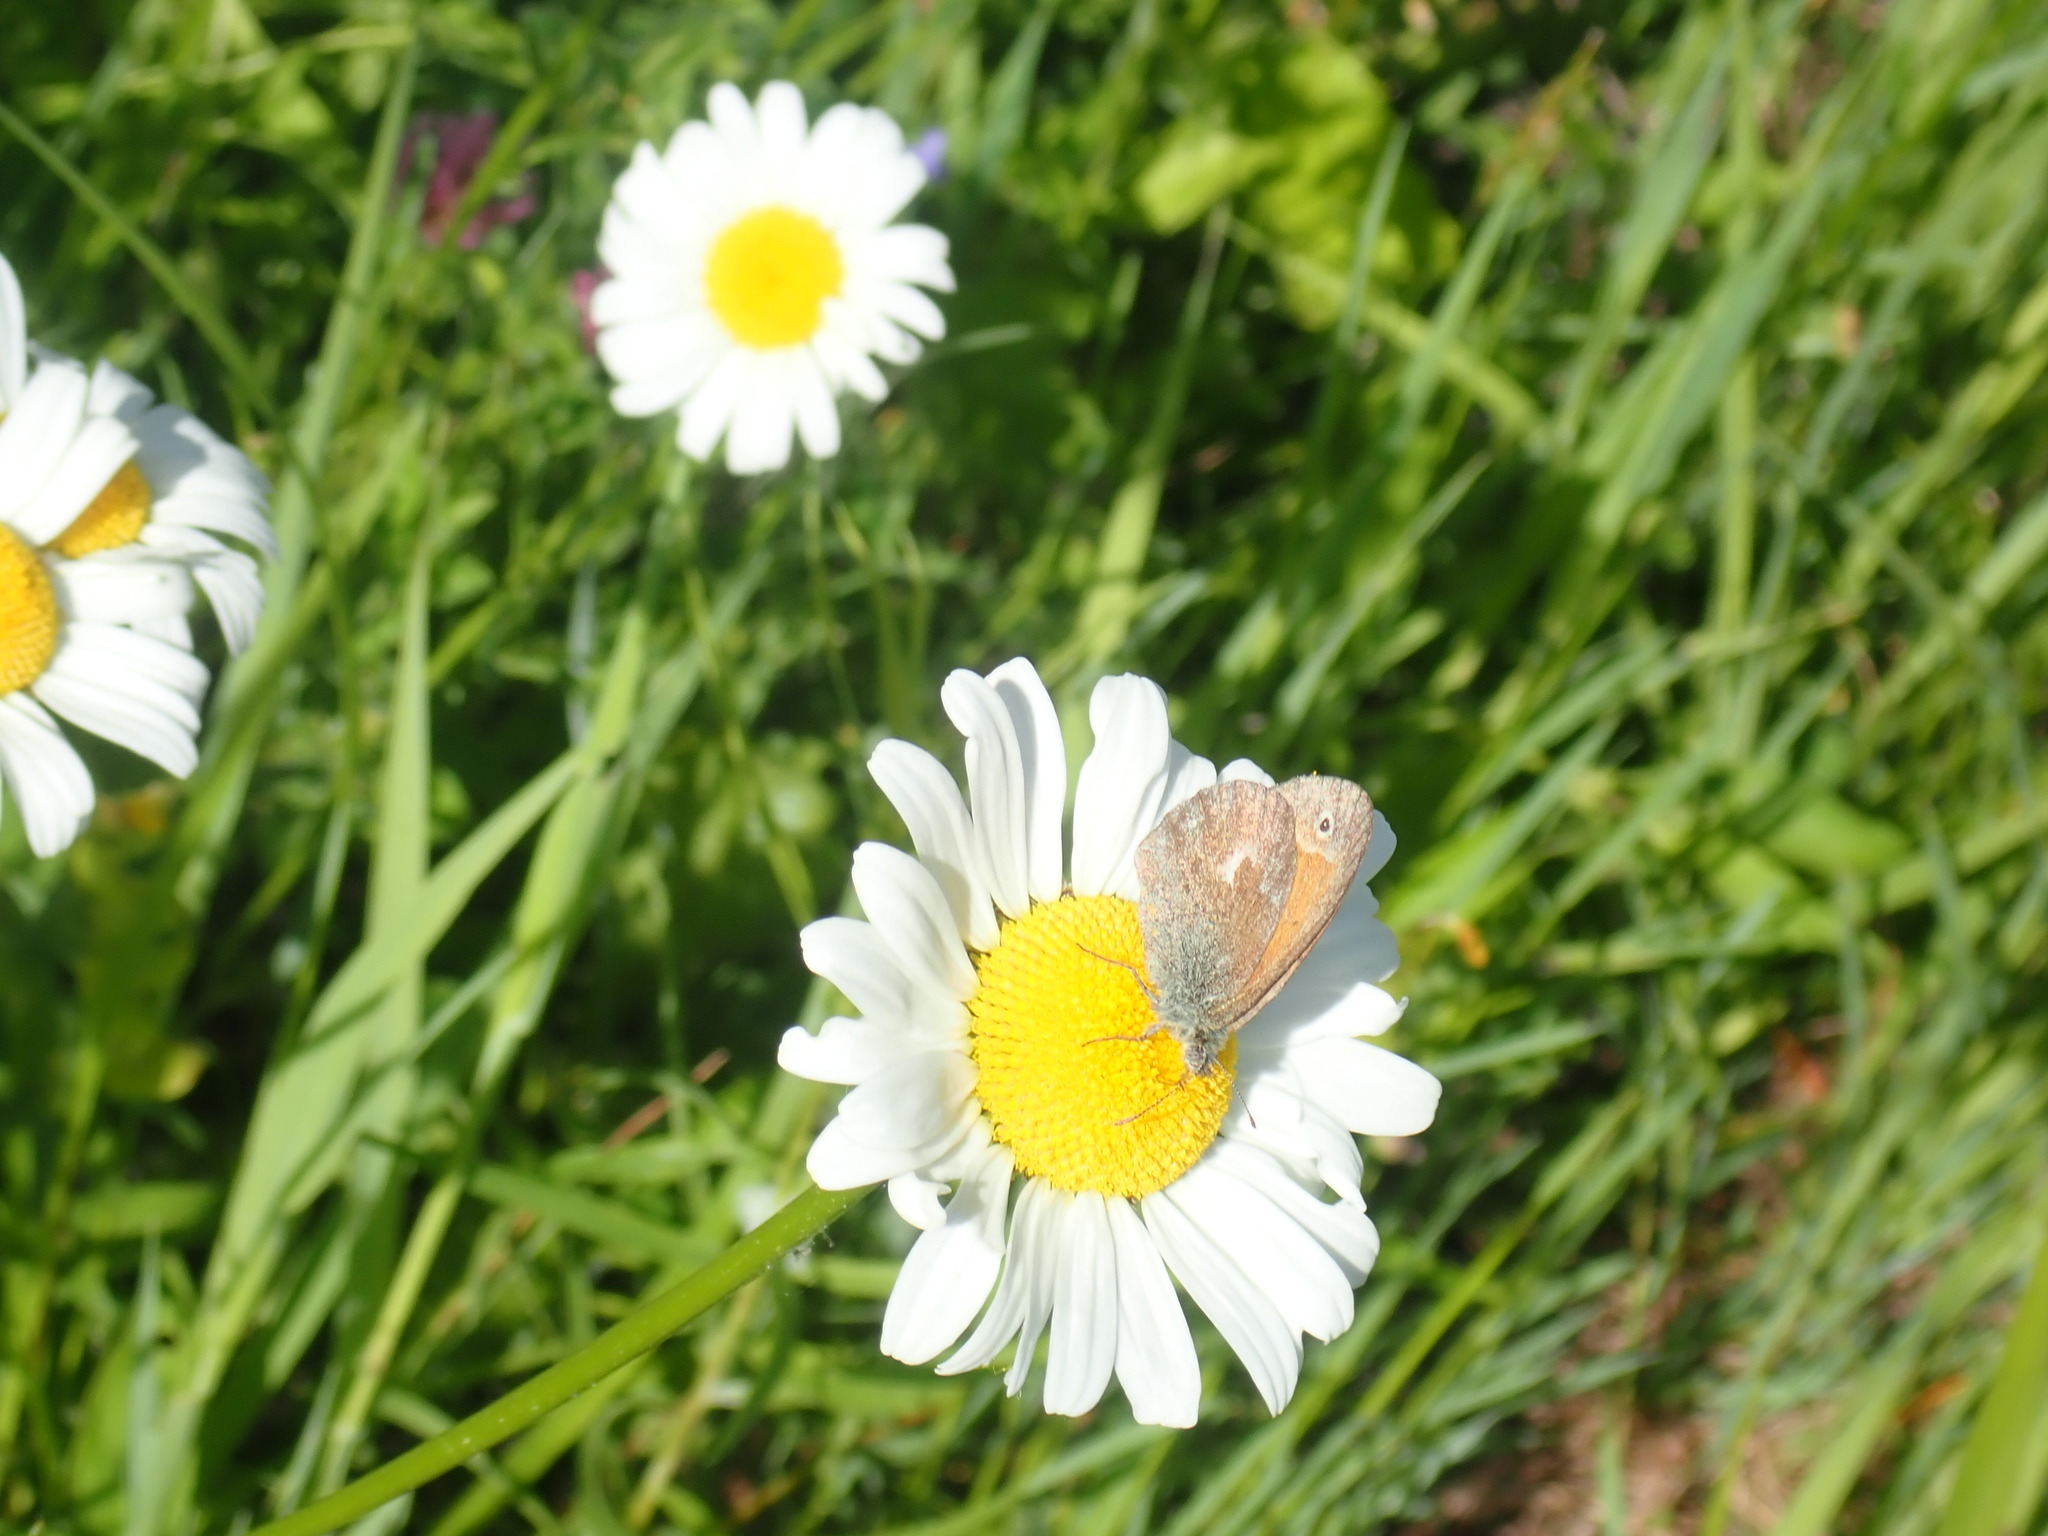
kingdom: Animalia
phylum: Arthropoda
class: Insecta
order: Lepidoptera
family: Nymphalidae
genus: Coenonympha
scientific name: Coenonympha california
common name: Common ringlet
